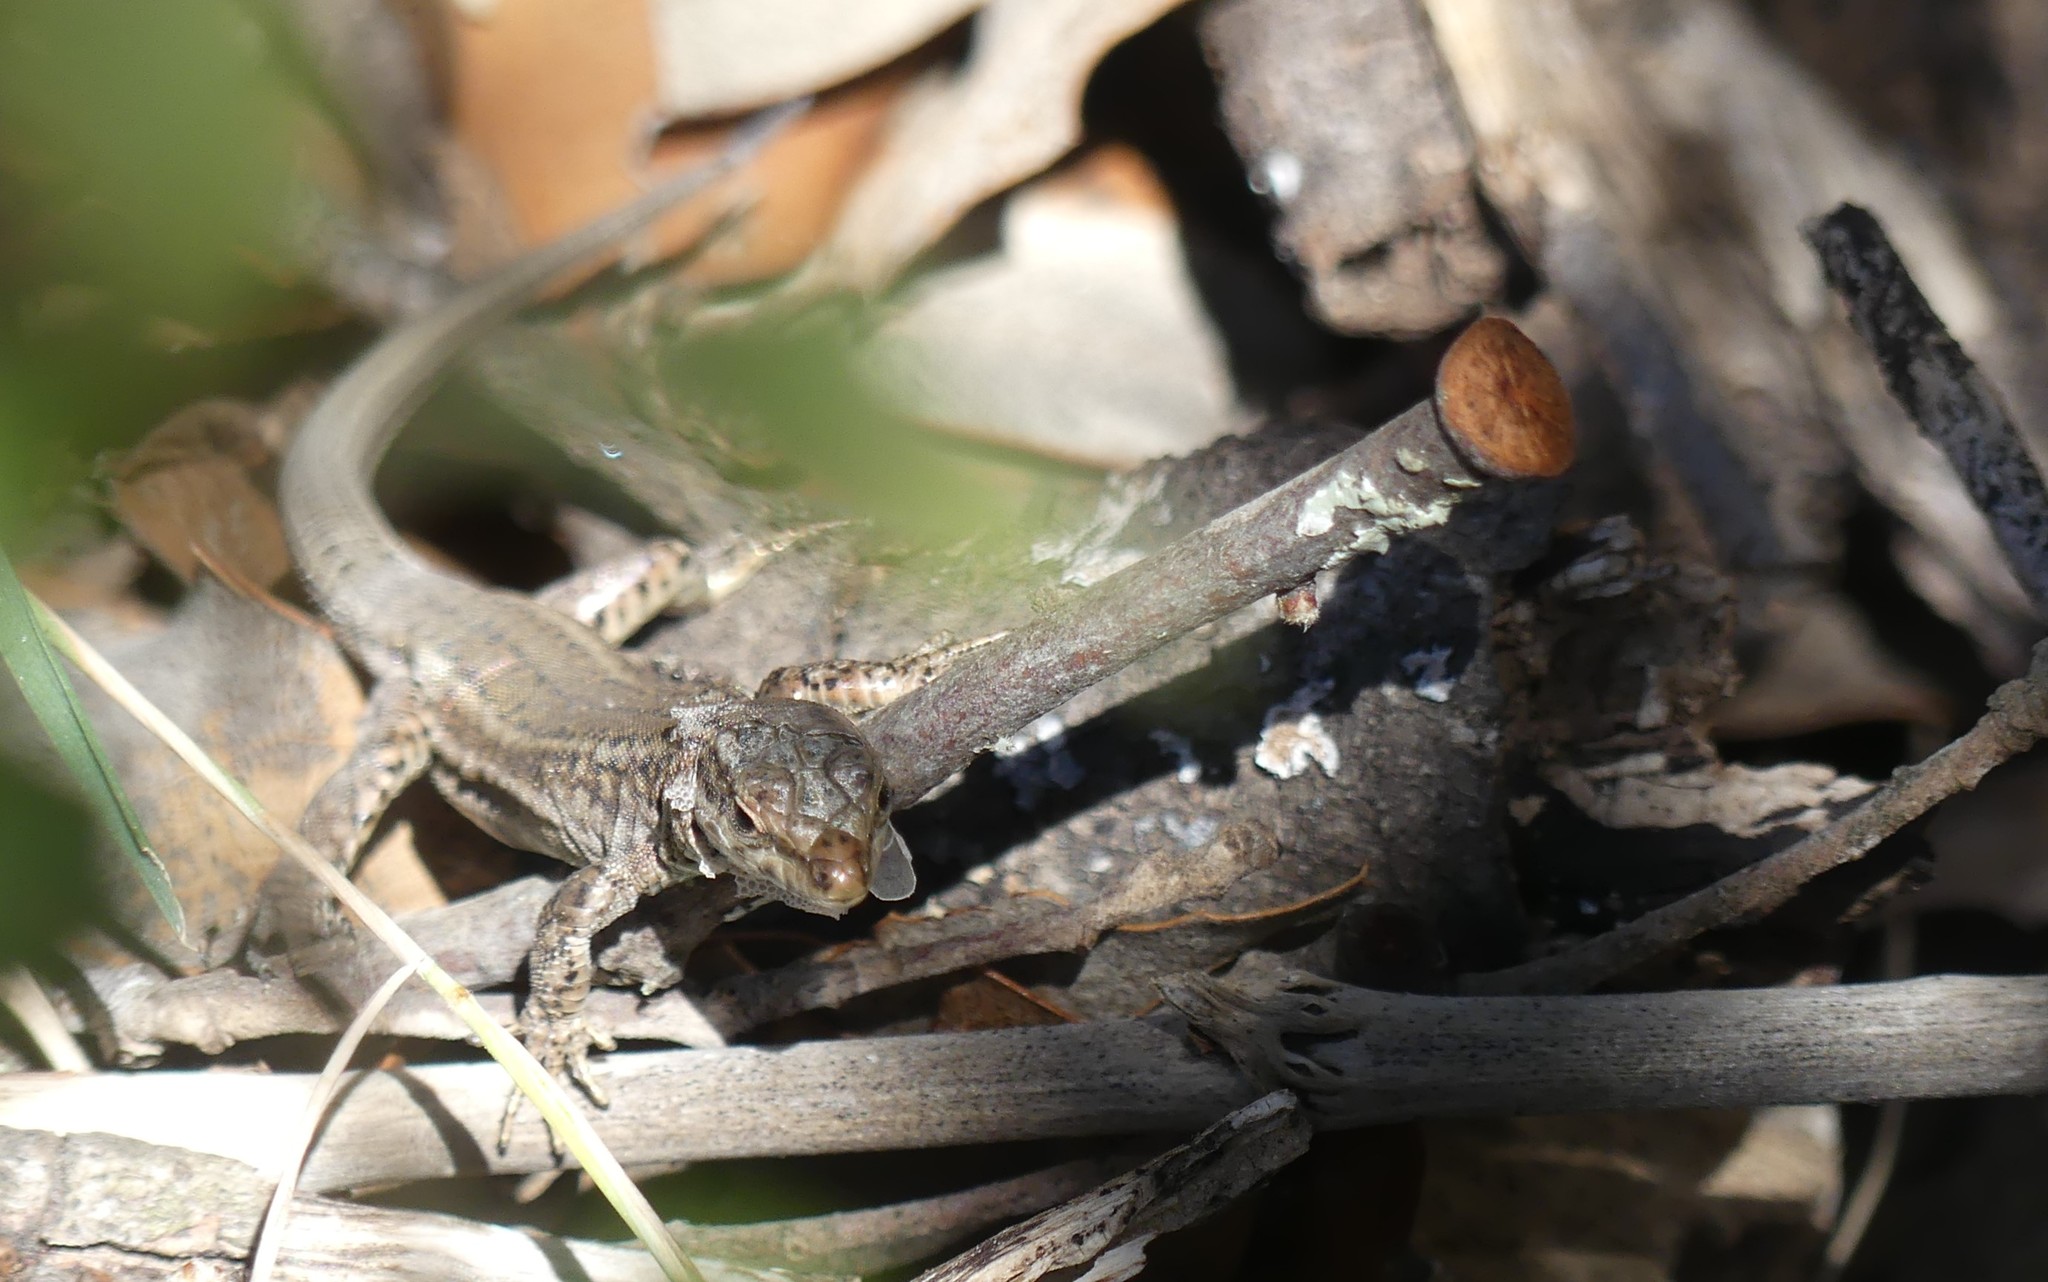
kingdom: Animalia
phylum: Chordata
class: Squamata
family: Lacertidae
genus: Podarcis
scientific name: Podarcis liolepis
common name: Catalonian wall lizard
